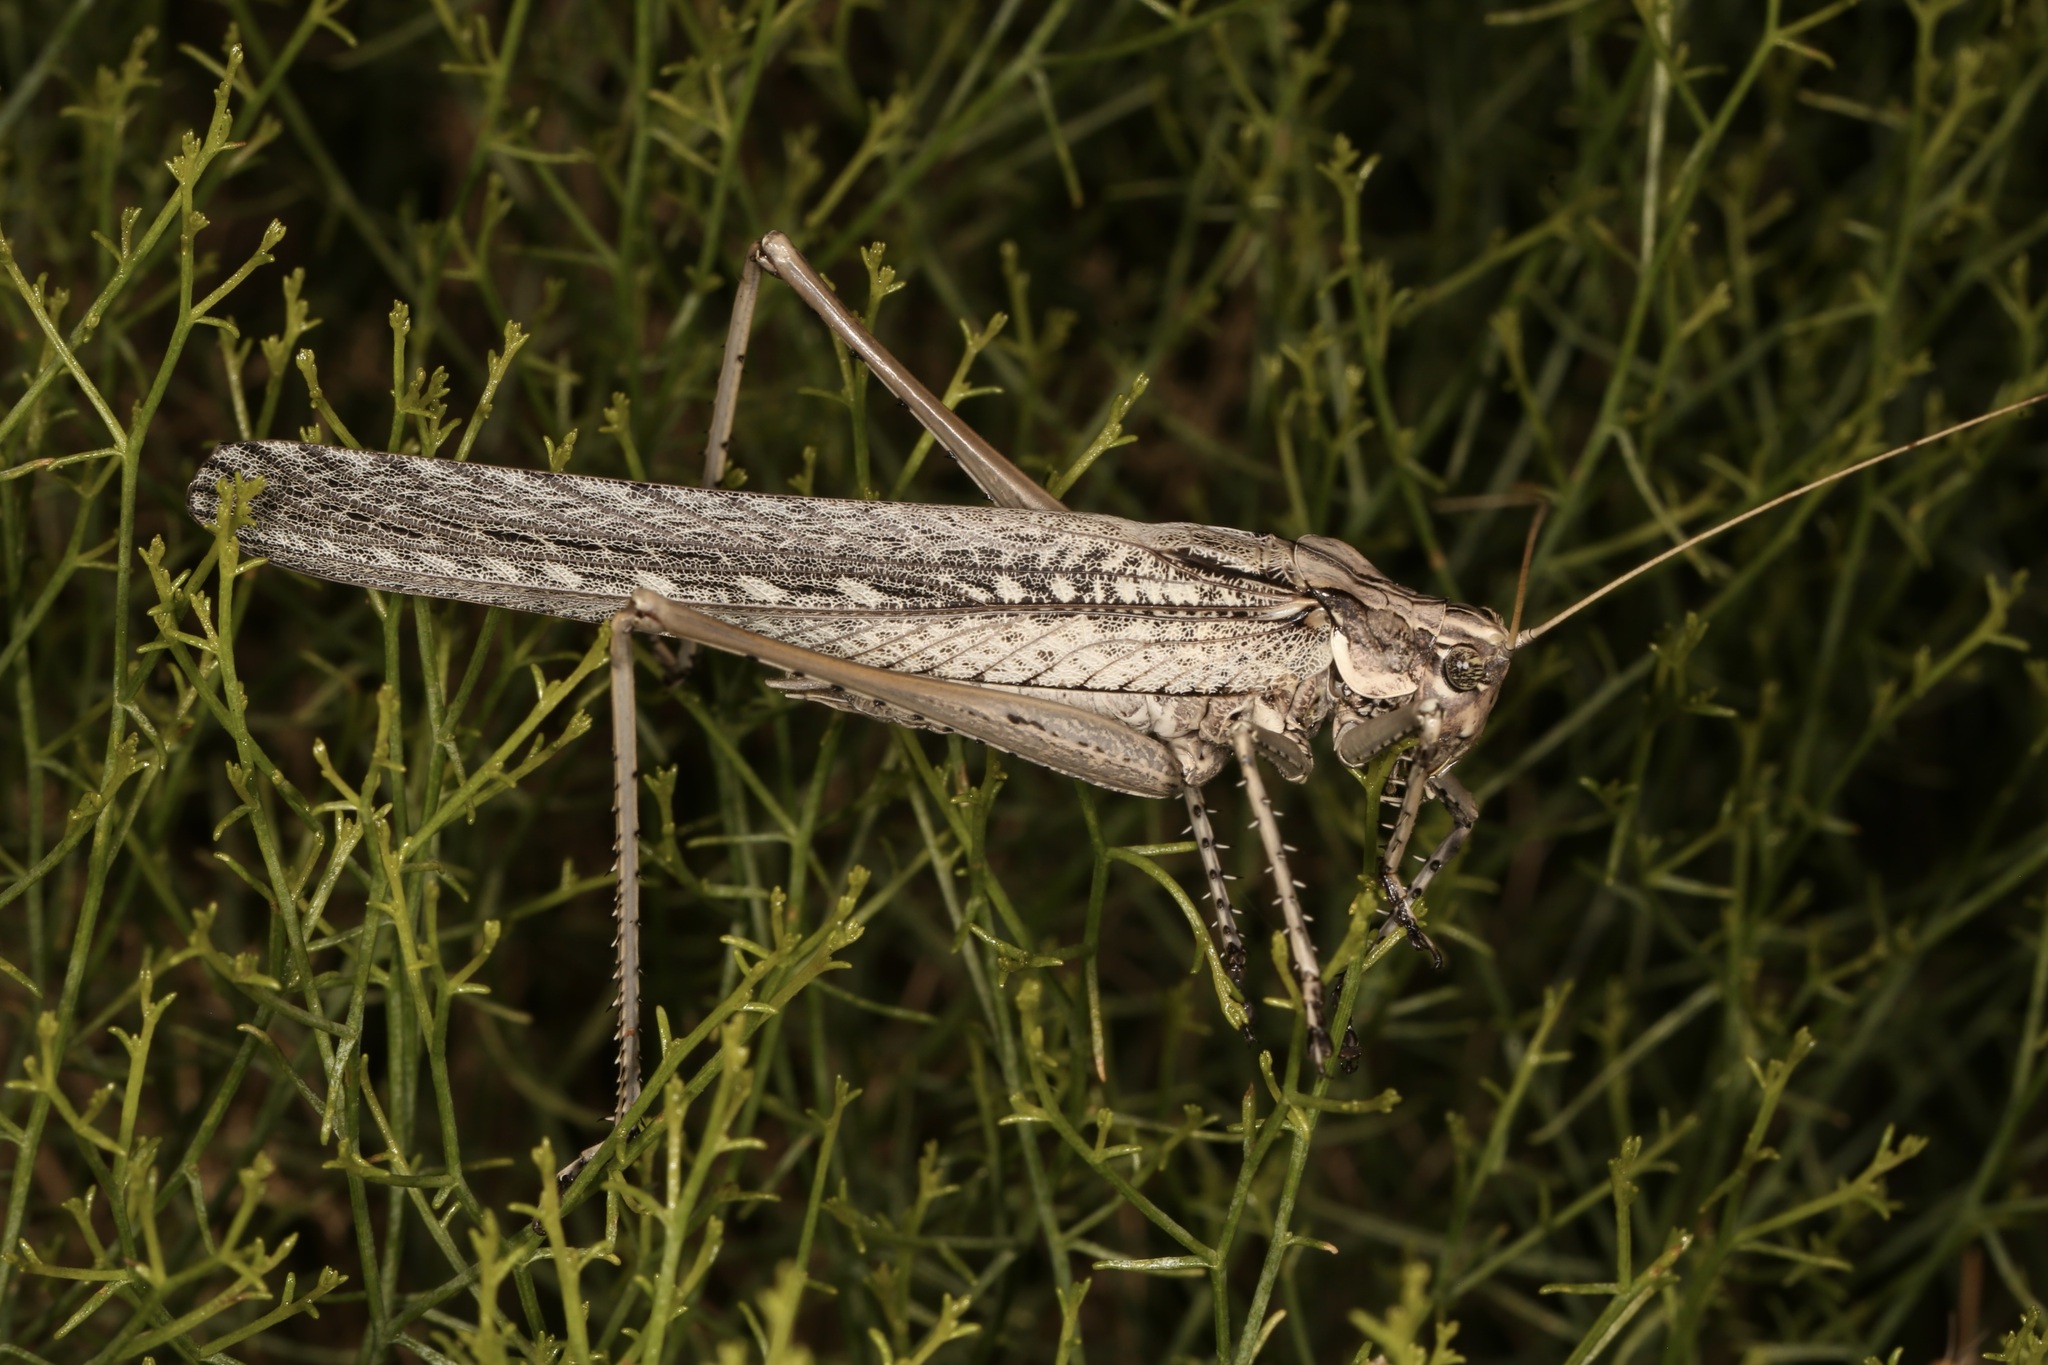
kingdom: Animalia
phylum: Arthropoda
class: Insecta
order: Orthoptera
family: Tettigoniidae
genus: Capnobotes
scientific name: Capnobotes fuliginosus
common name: Sooty longwing
